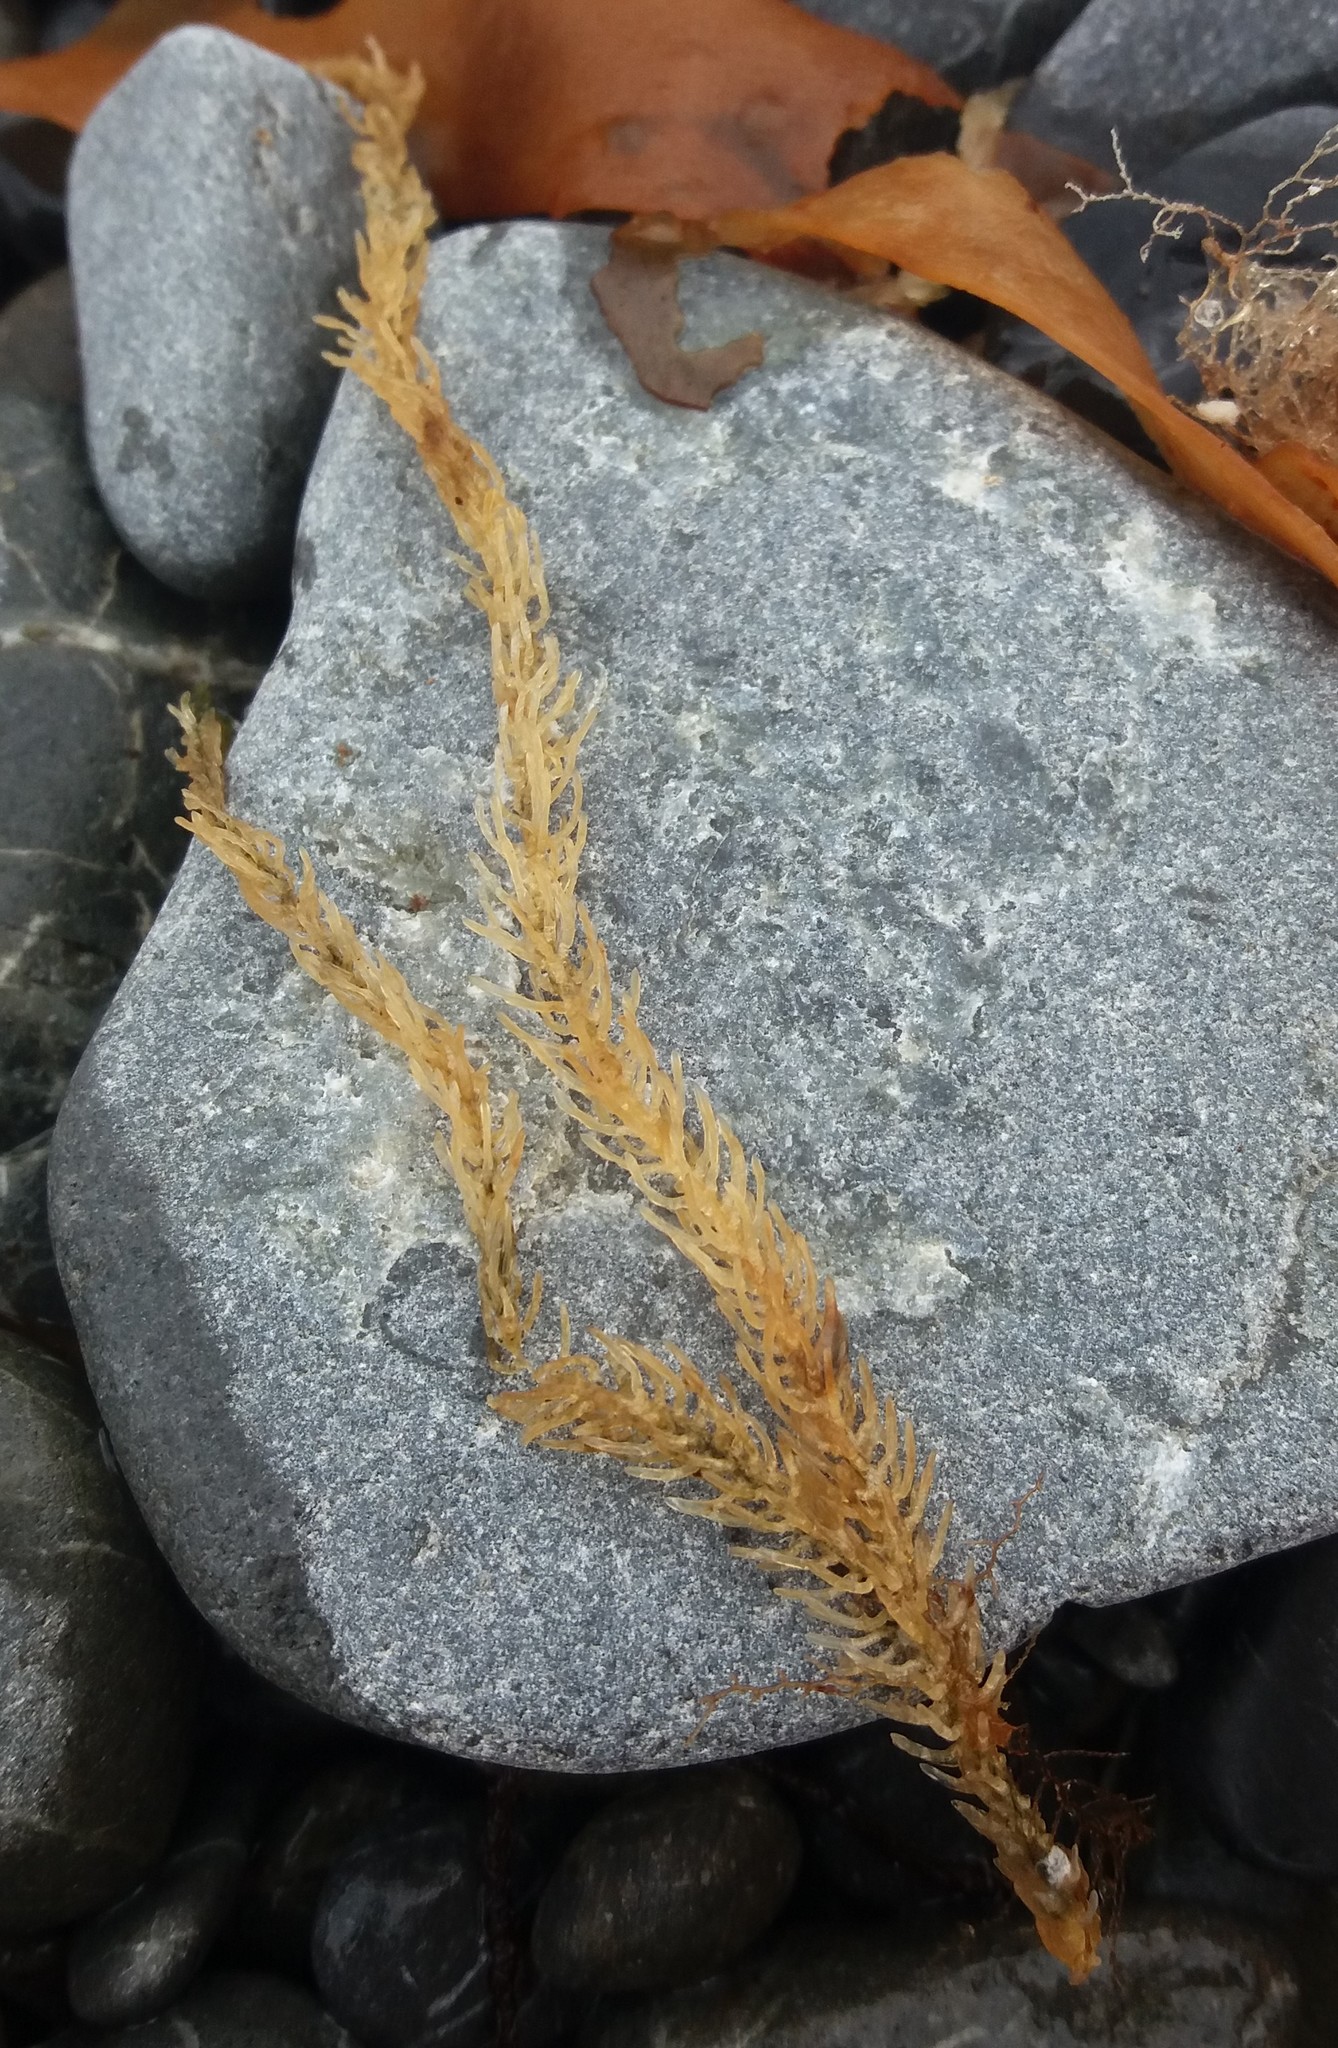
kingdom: Plantae
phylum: Chlorophyta
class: Ulvophyceae
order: Bryopsidales
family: Caulerpaceae
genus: Caulerpa
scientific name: Caulerpa brownii
